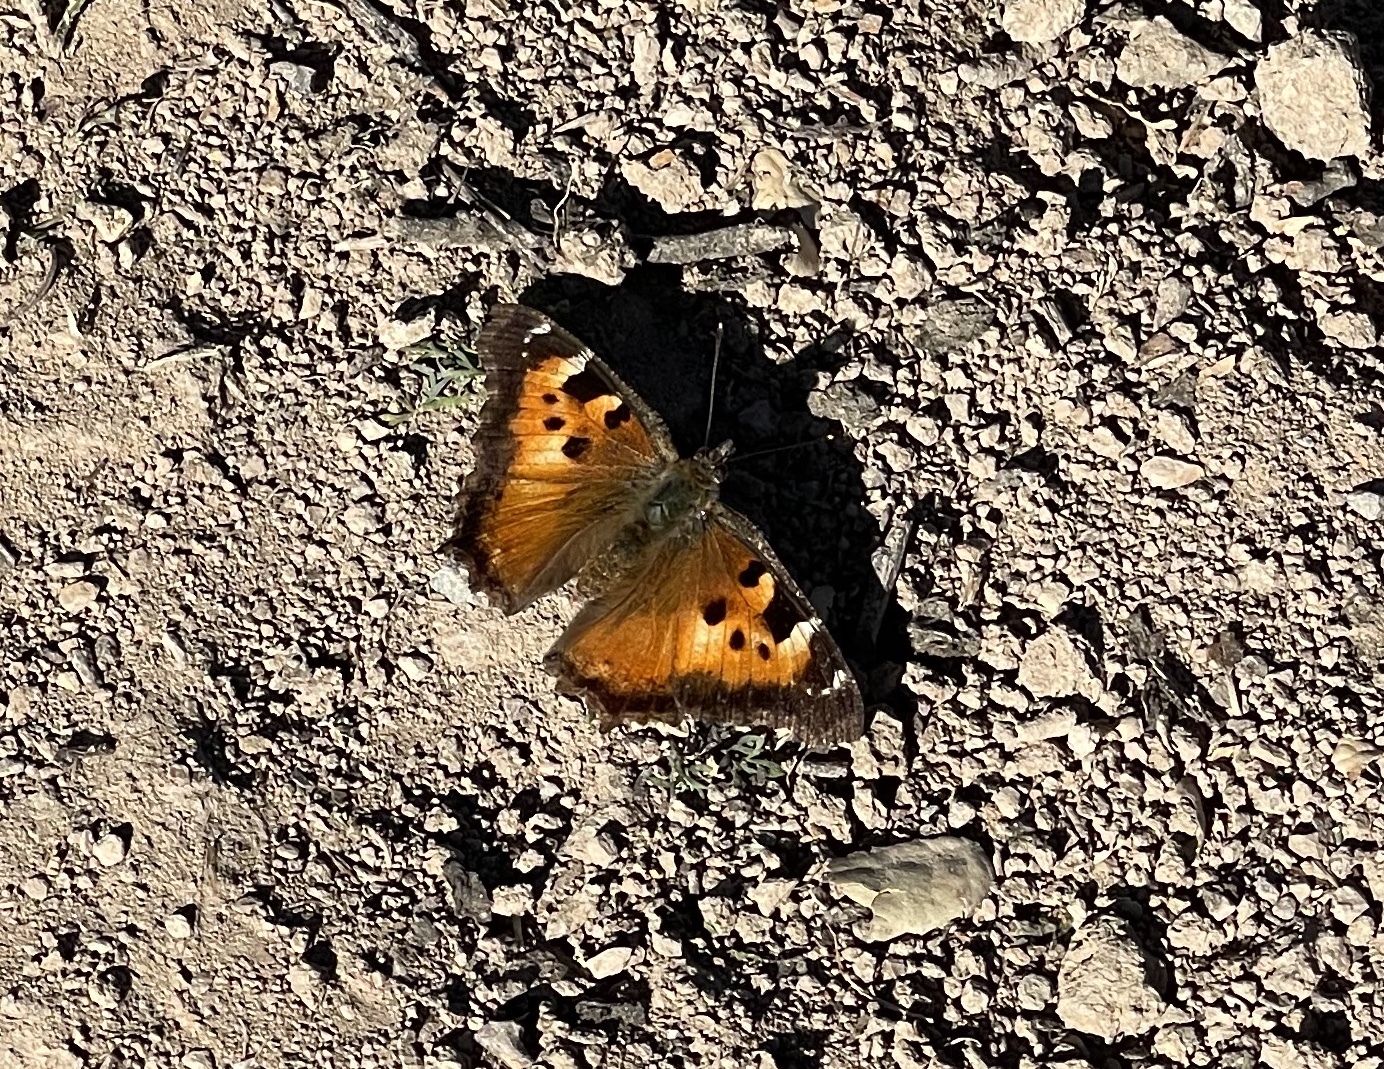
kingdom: Animalia
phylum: Arthropoda
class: Insecta
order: Lepidoptera
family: Nymphalidae
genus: Nymphalis
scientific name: Nymphalis californica
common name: California tortoiseshell
